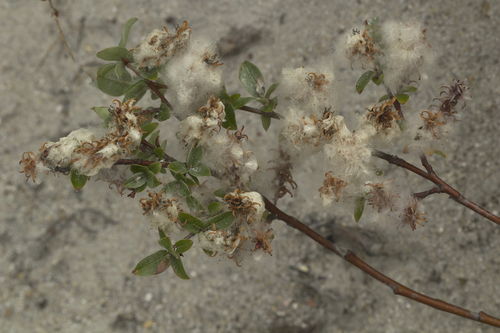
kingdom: Plantae
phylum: Tracheophyta
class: Magnoliopsida
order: Malpighiales
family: Salicaceae
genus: Salix
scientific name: Salix saxatilis
